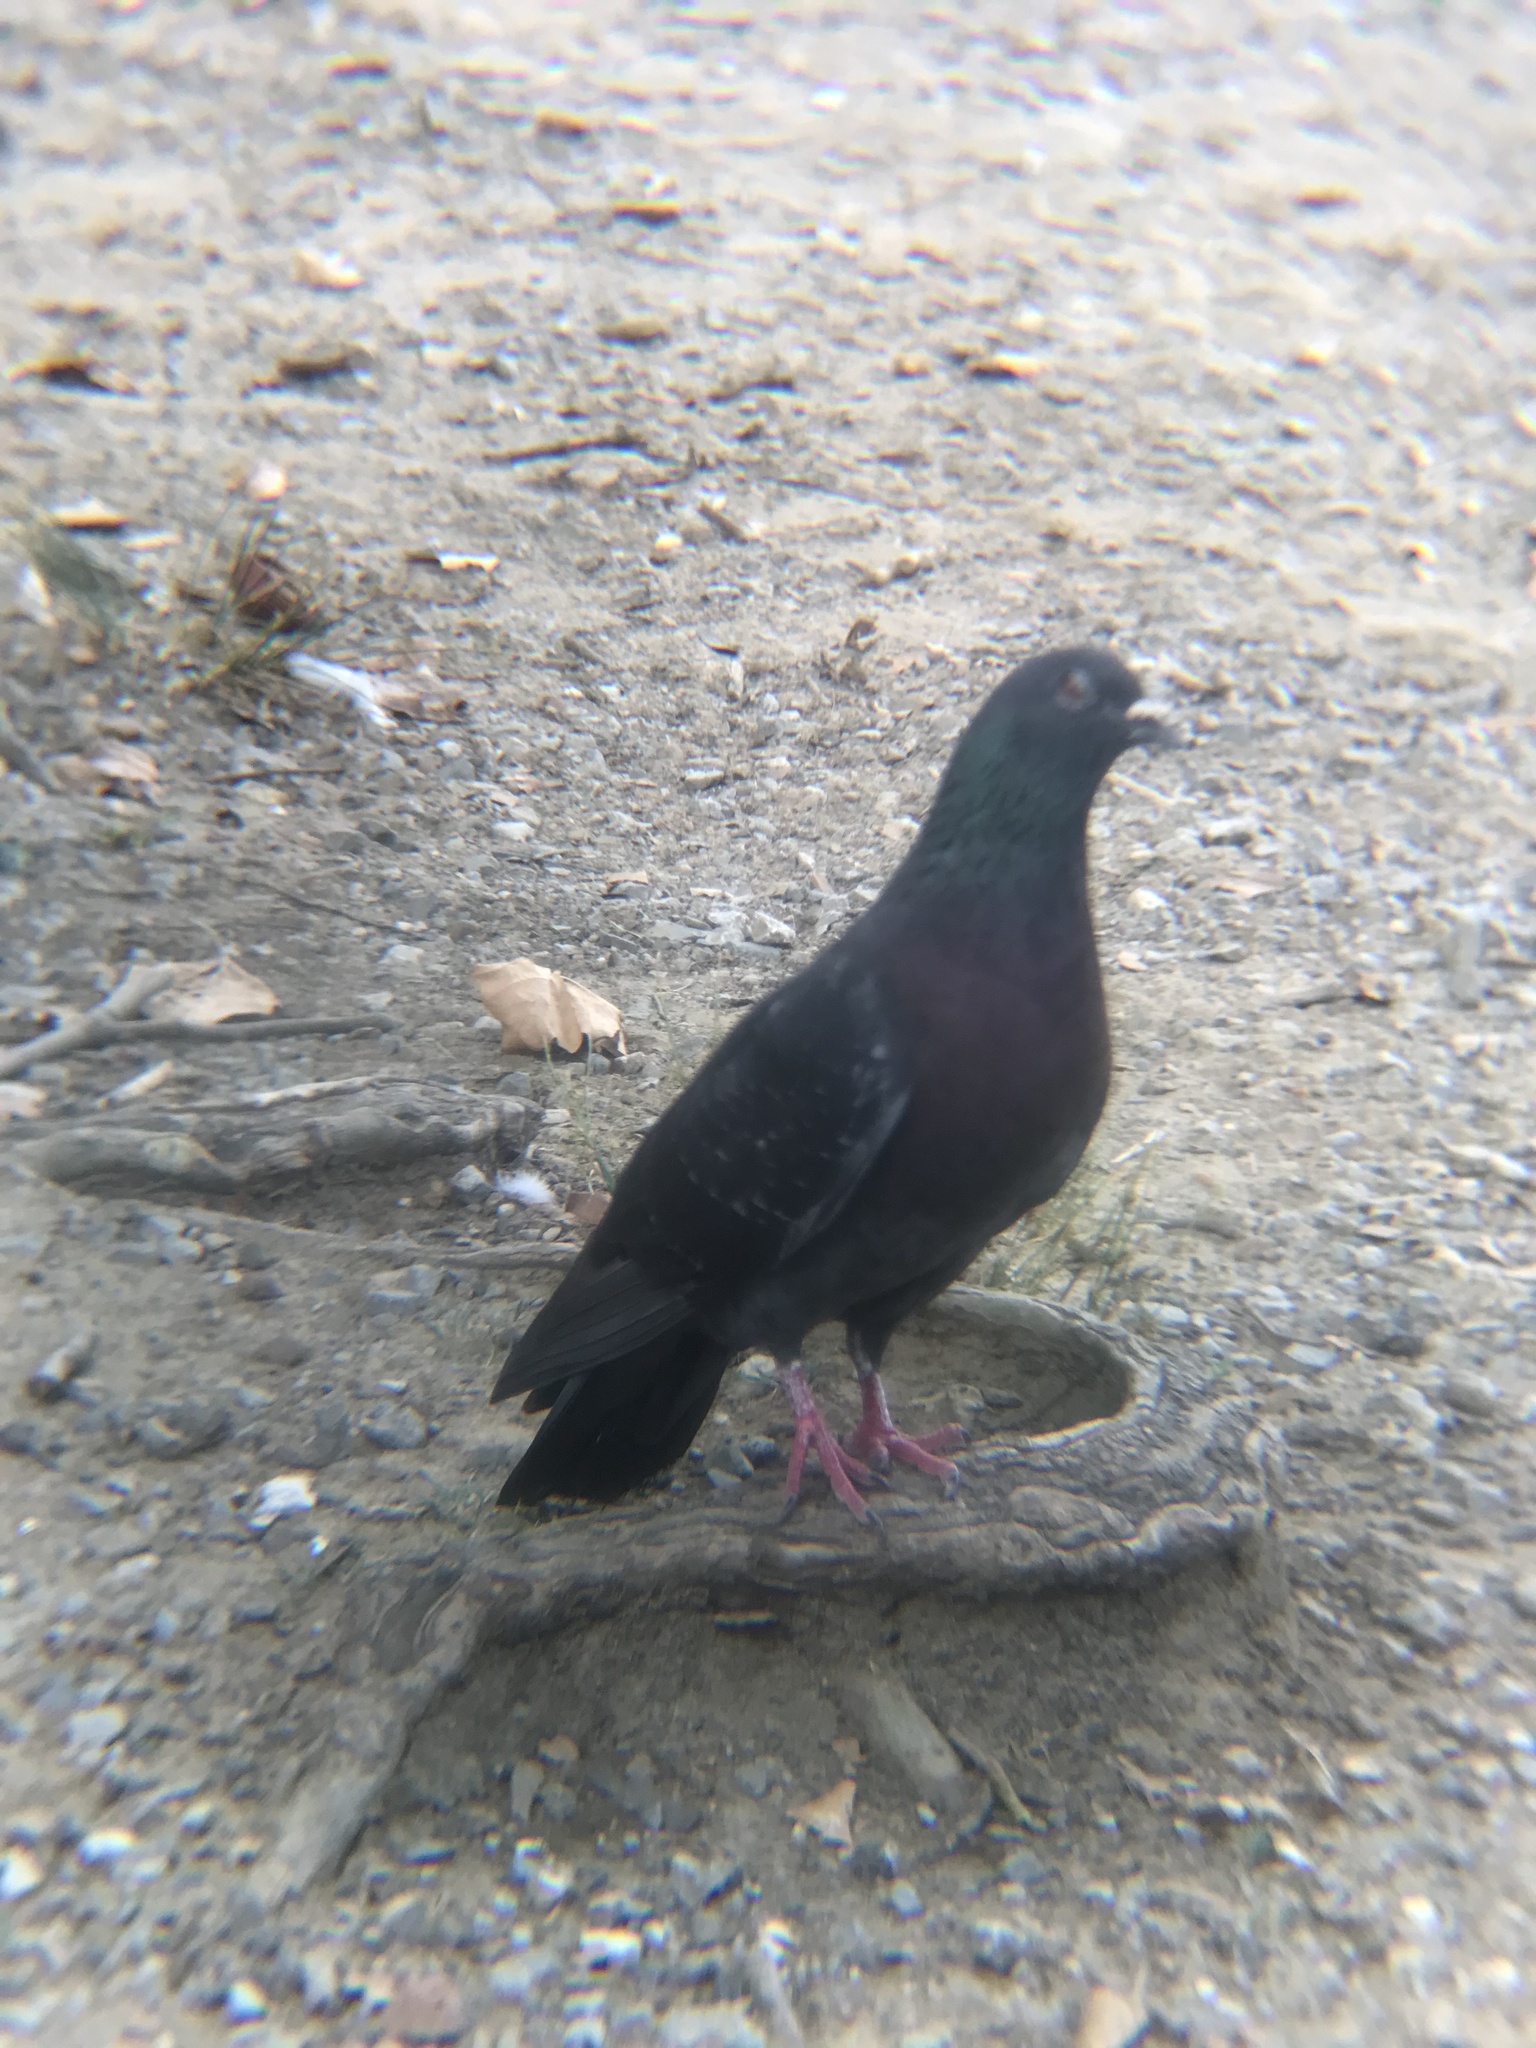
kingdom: Animalia
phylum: Chordata
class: Aves
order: Columbiformes
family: Columbidae
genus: Columba
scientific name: Columba livia
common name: Rock pigeon
